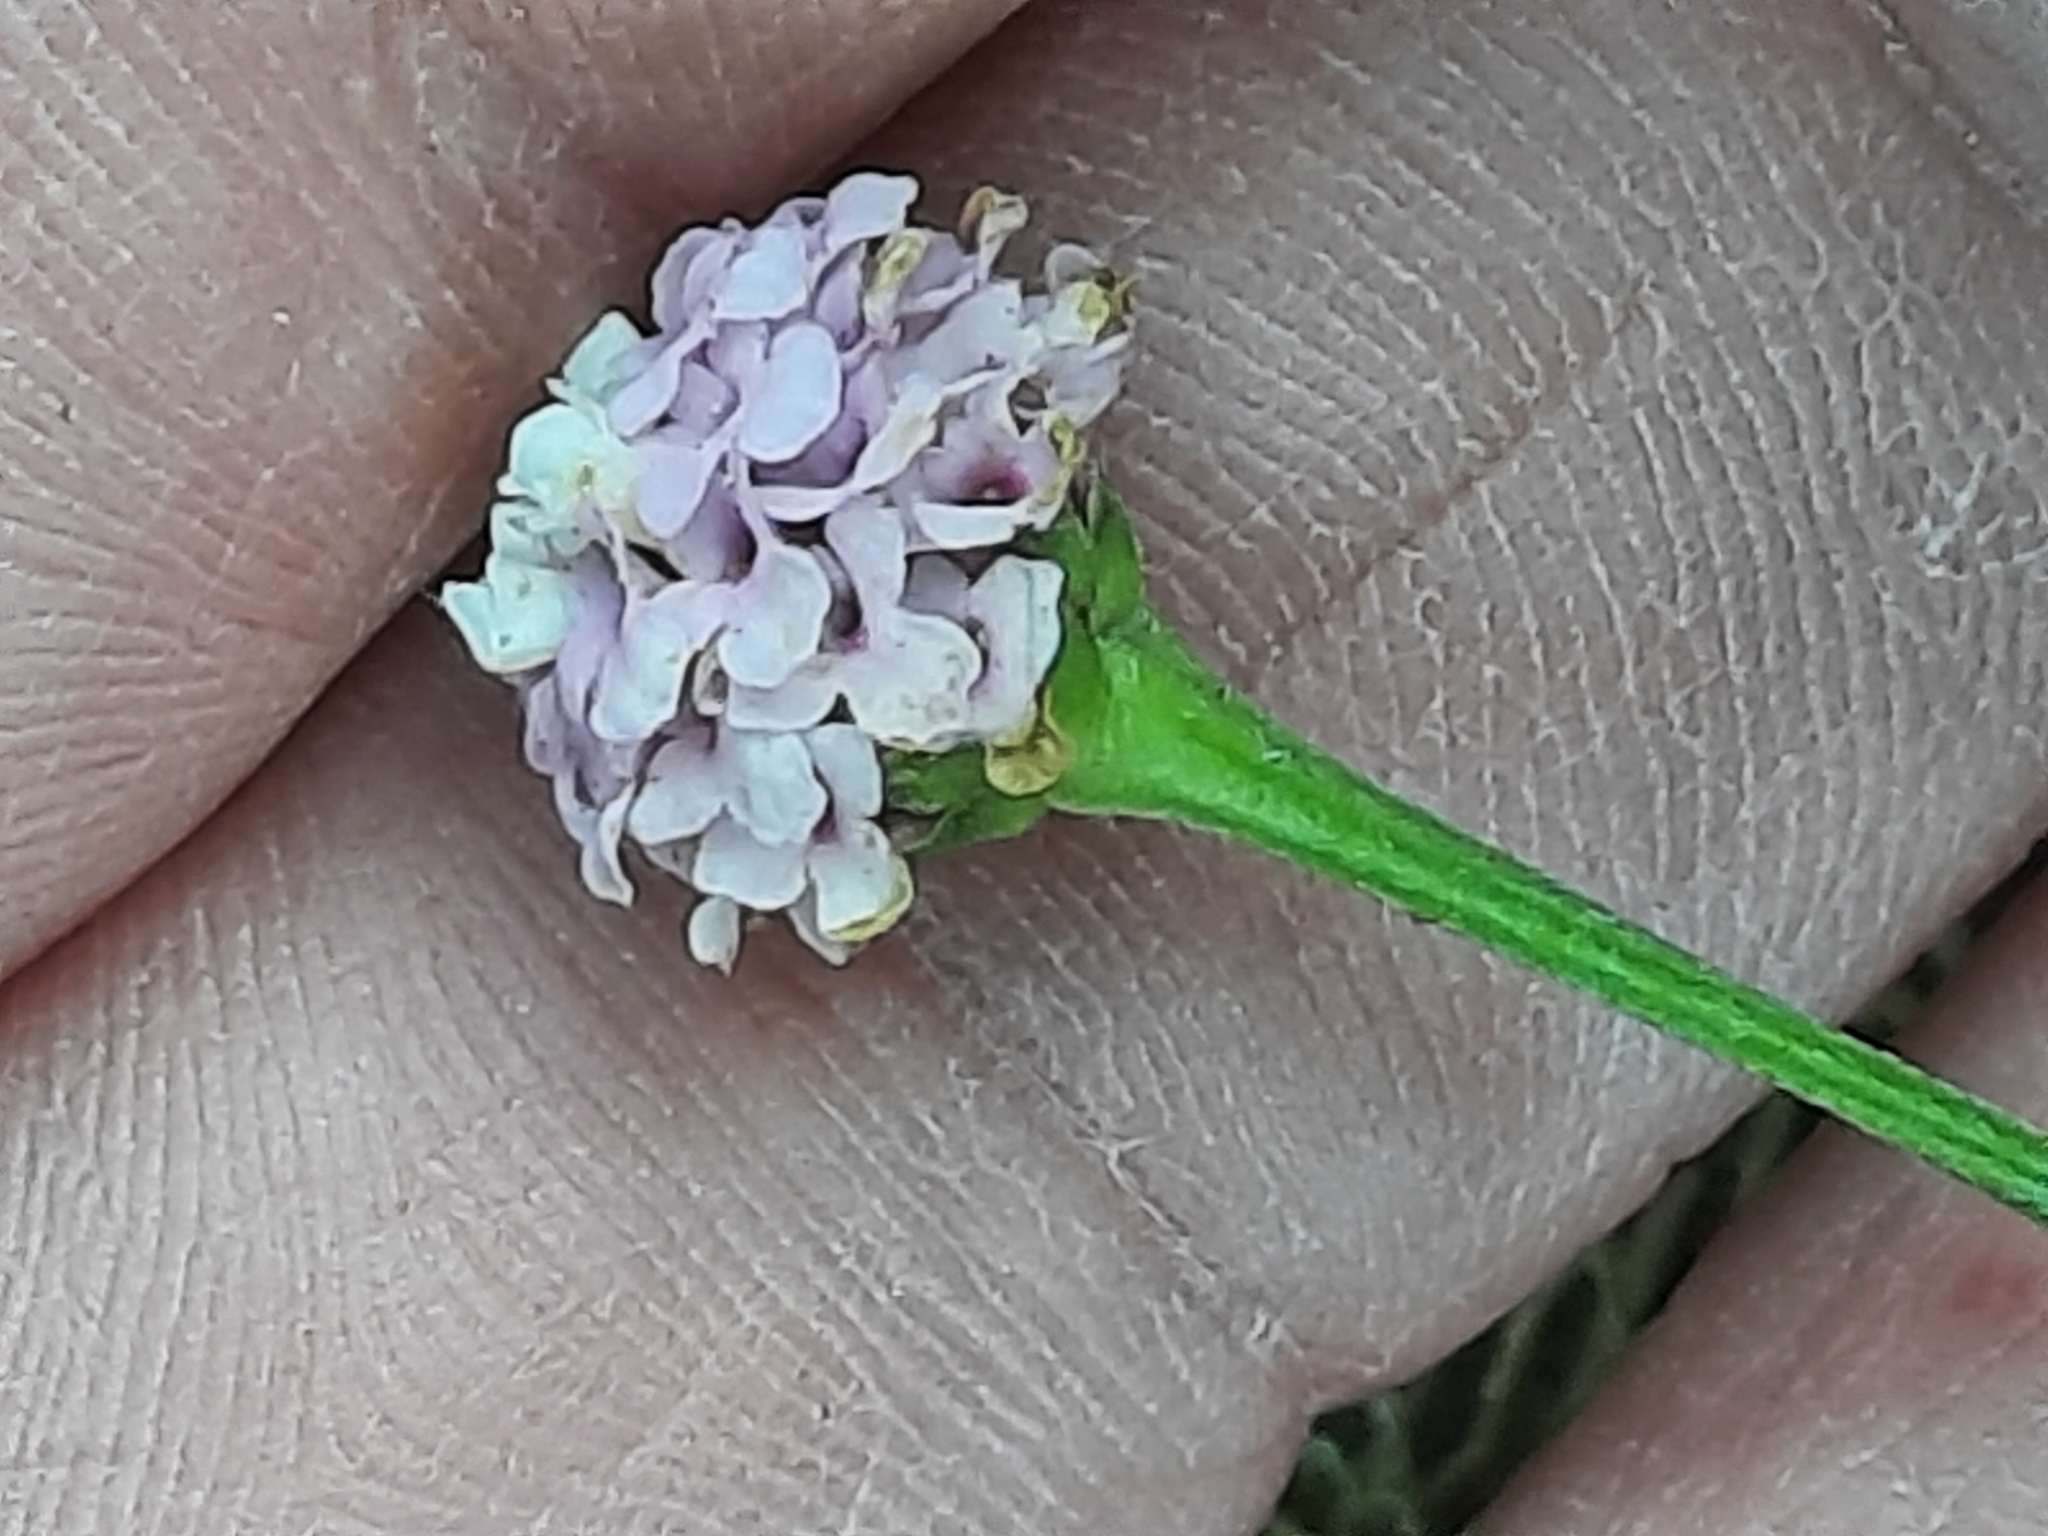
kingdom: Plantae
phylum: Tracheophyta
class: Magnoliopsida
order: Lamiales
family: Verbenaceae
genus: Phyla
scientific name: Phyla lanceolata
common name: Northern fogfruit
